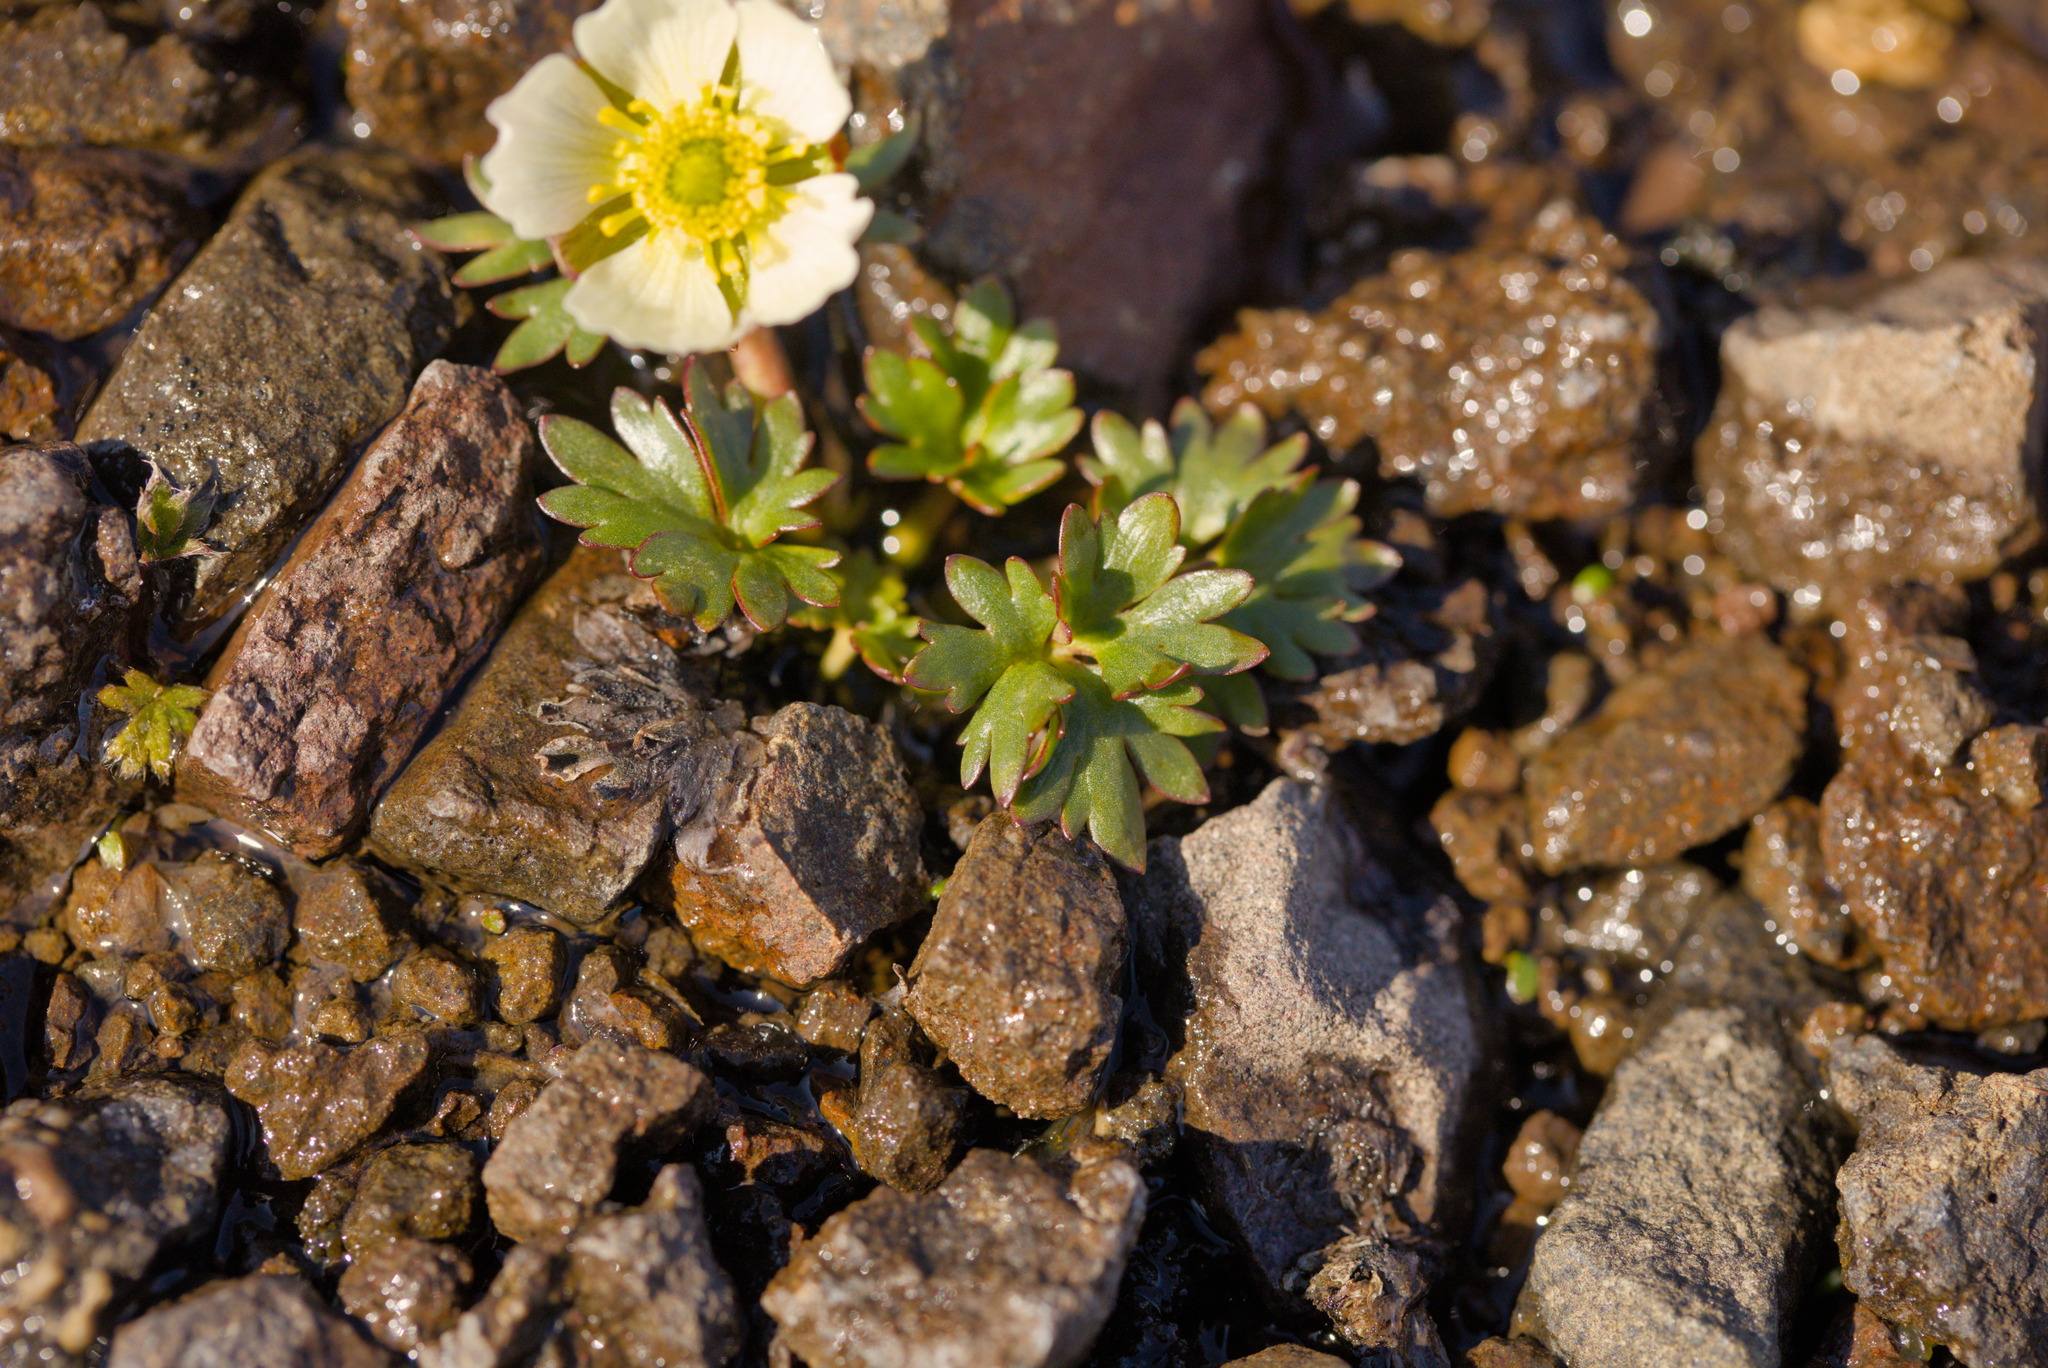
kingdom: Plantae
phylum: Tracheophyta
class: Magnoliopsida
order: Ranunculales
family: Ranunculaceae
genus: Ranunculus
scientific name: Ranunculus glacialis
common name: Glacier buttercup
